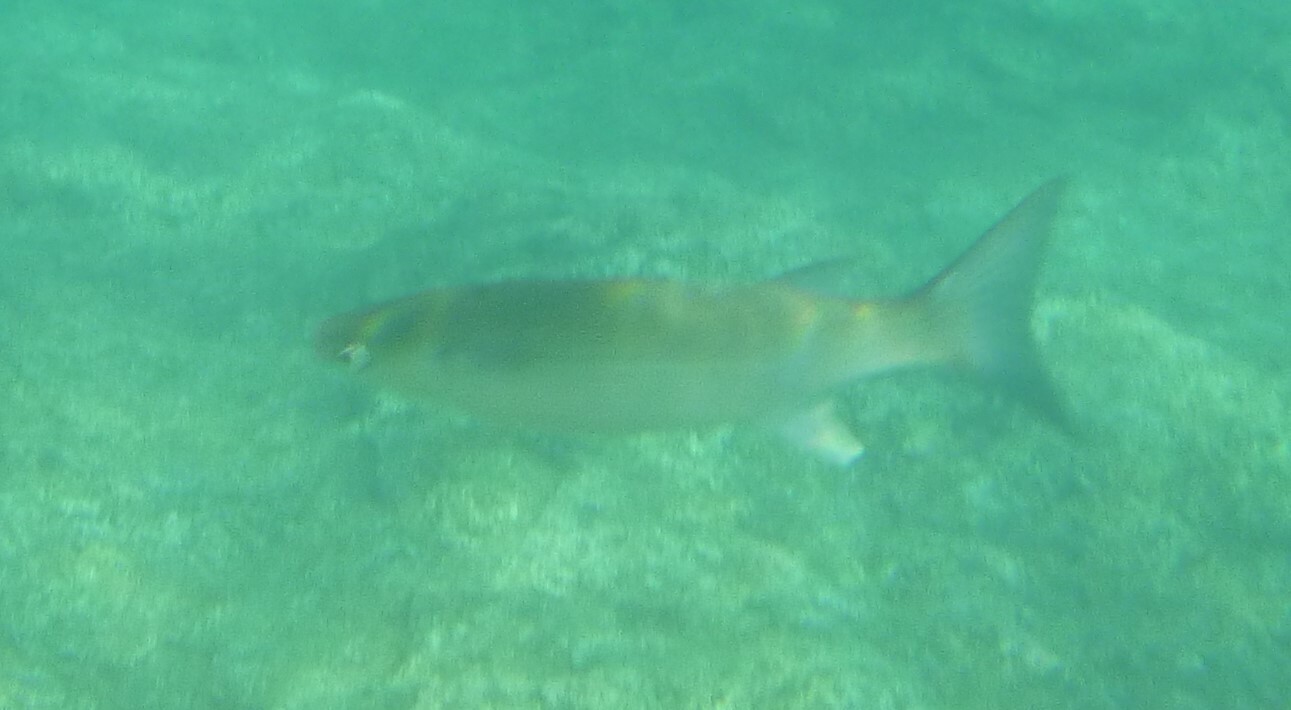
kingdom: Animalia
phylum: Chordata
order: Mugiliformes
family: Mugilidae
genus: Chelon
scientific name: Chelon labrosus
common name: Thick-lipped mullet
